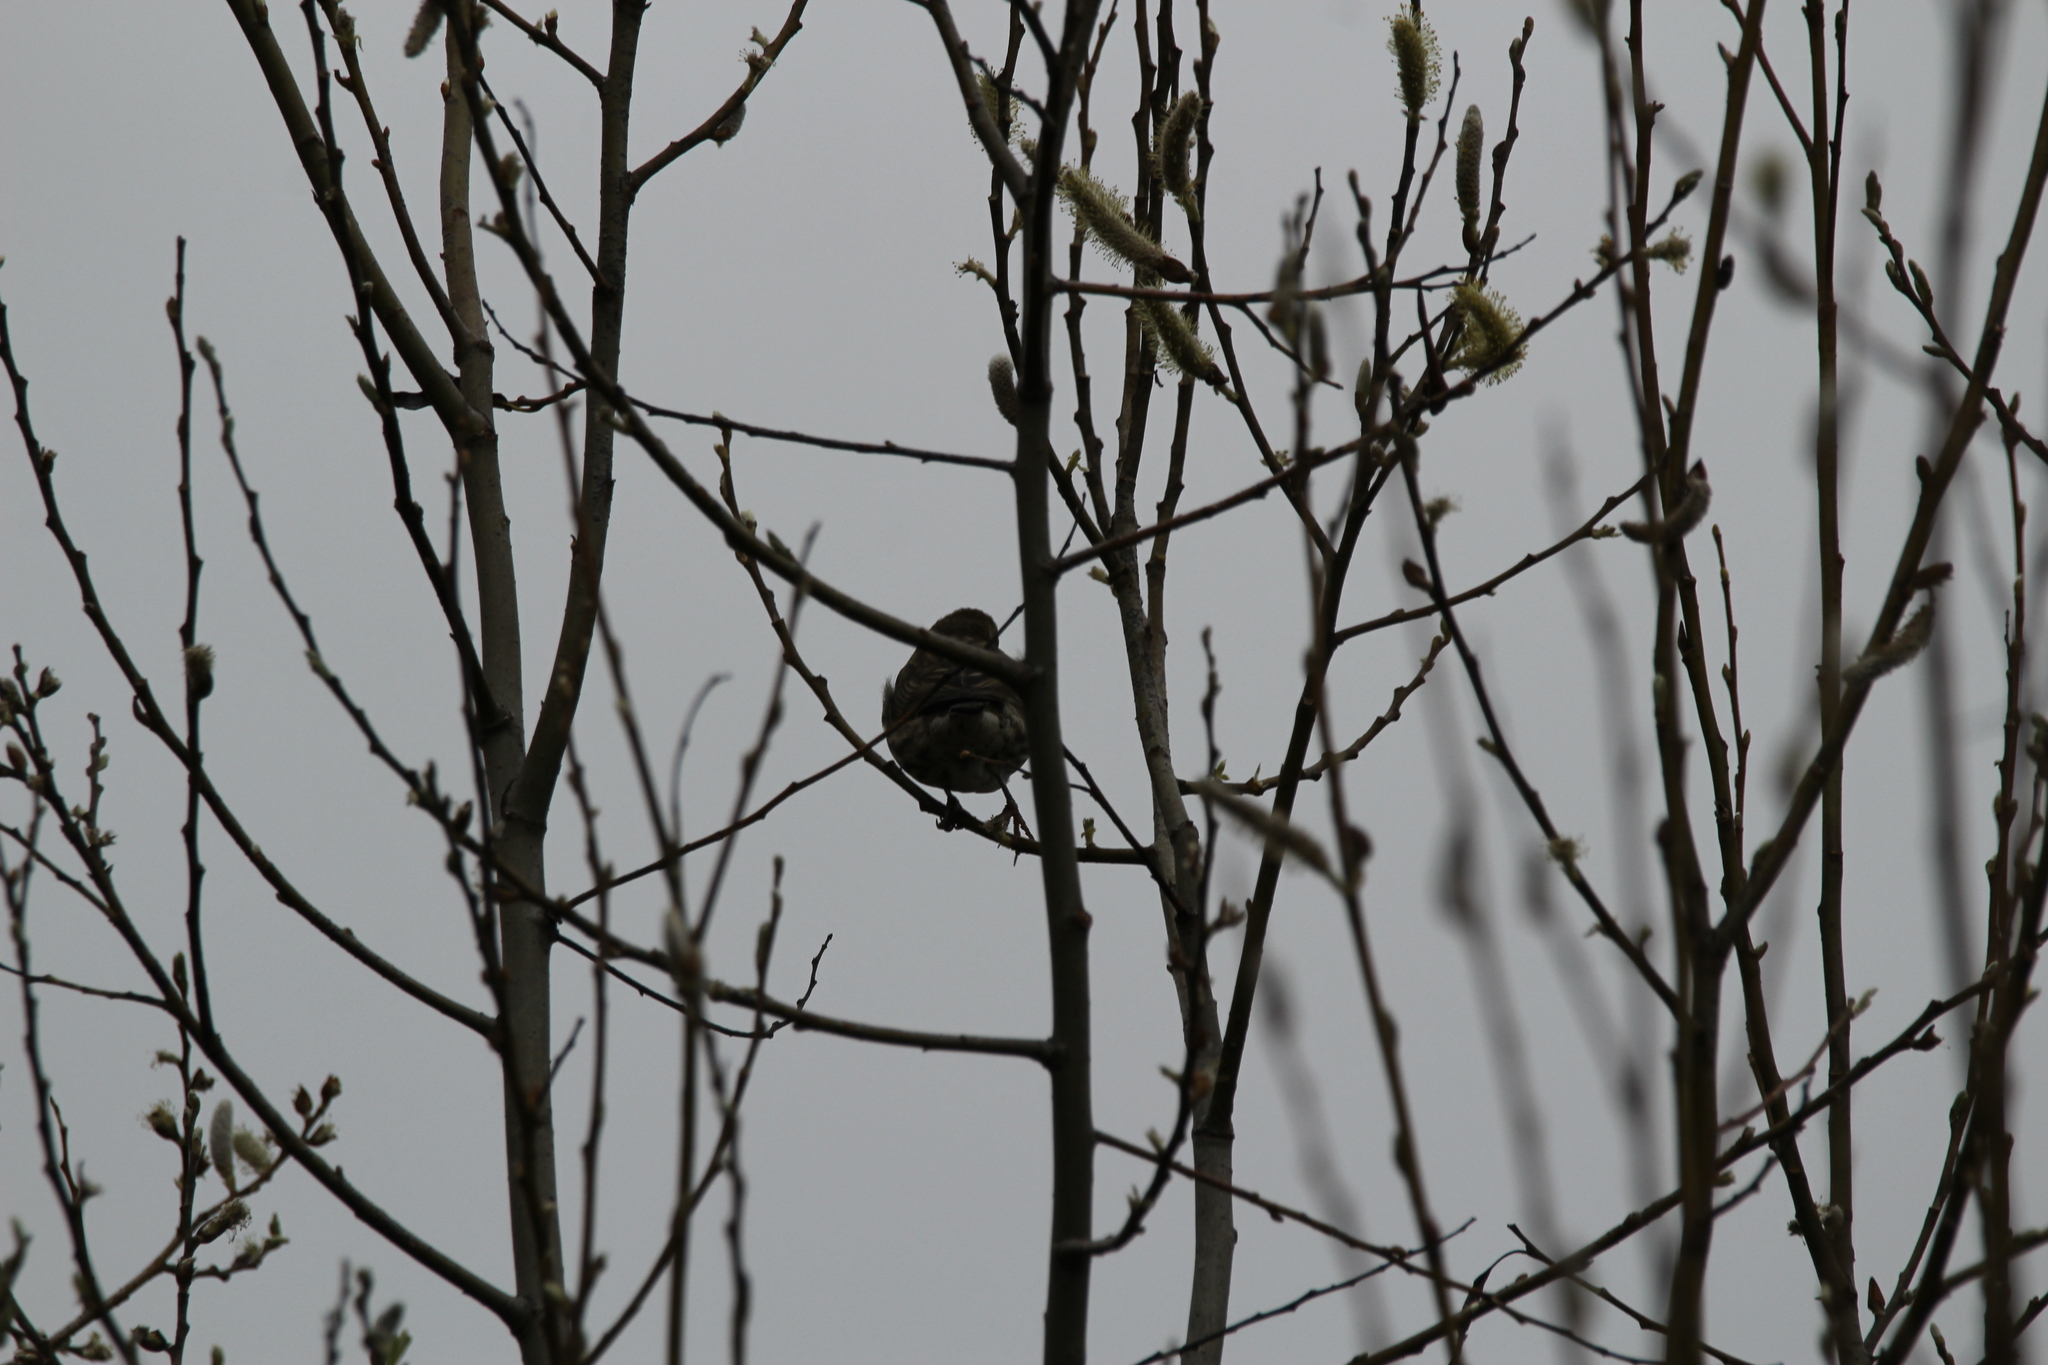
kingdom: Animalia
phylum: Chordata
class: Aves
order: Passeriformes
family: Fringillidae
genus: Haemorhous
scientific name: Haemorhous mexicanus
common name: House finch
